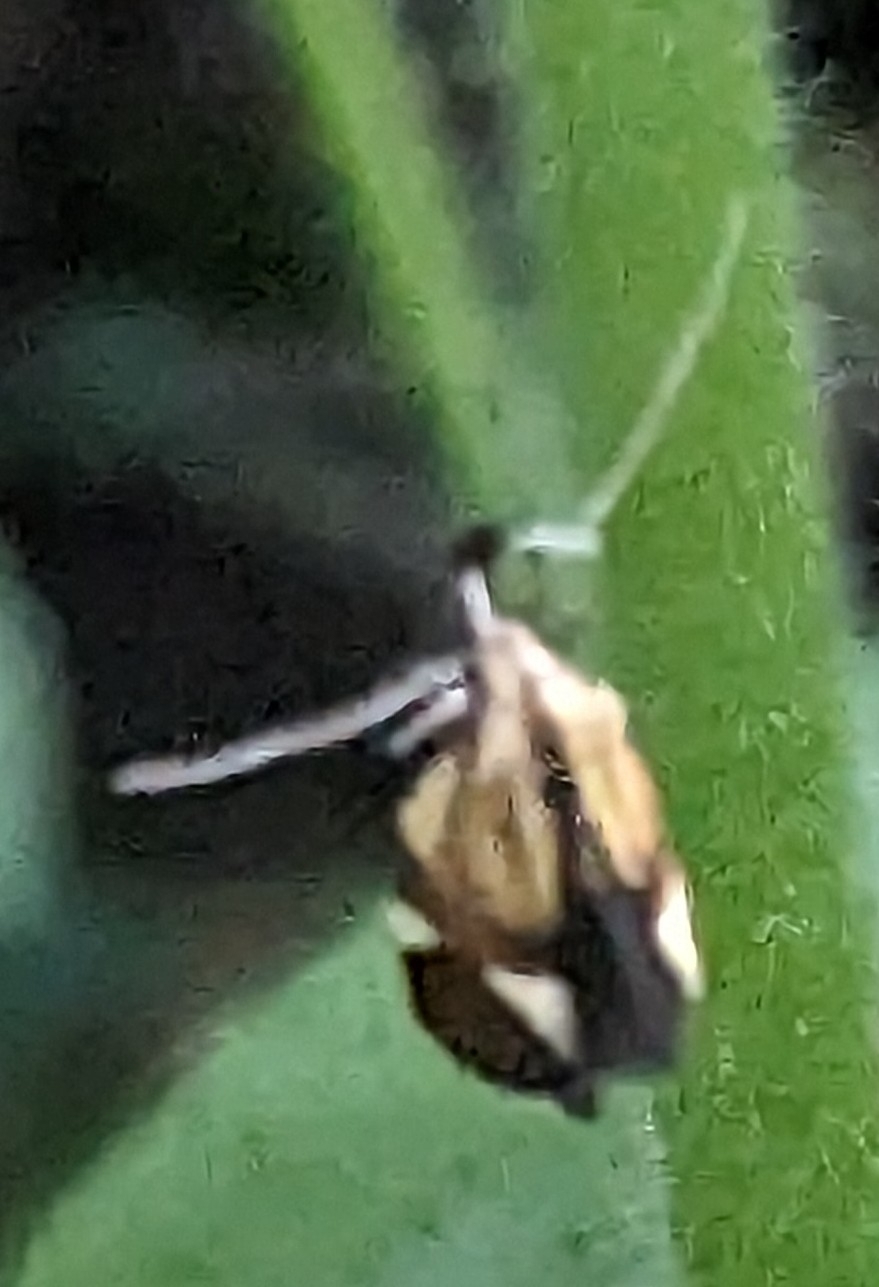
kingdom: Animalia
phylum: Arthropoda
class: Insecta
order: Lepidoptera
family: Oecophoridae
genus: Oecophora
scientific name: Oecophora Alabonia geoffrella
